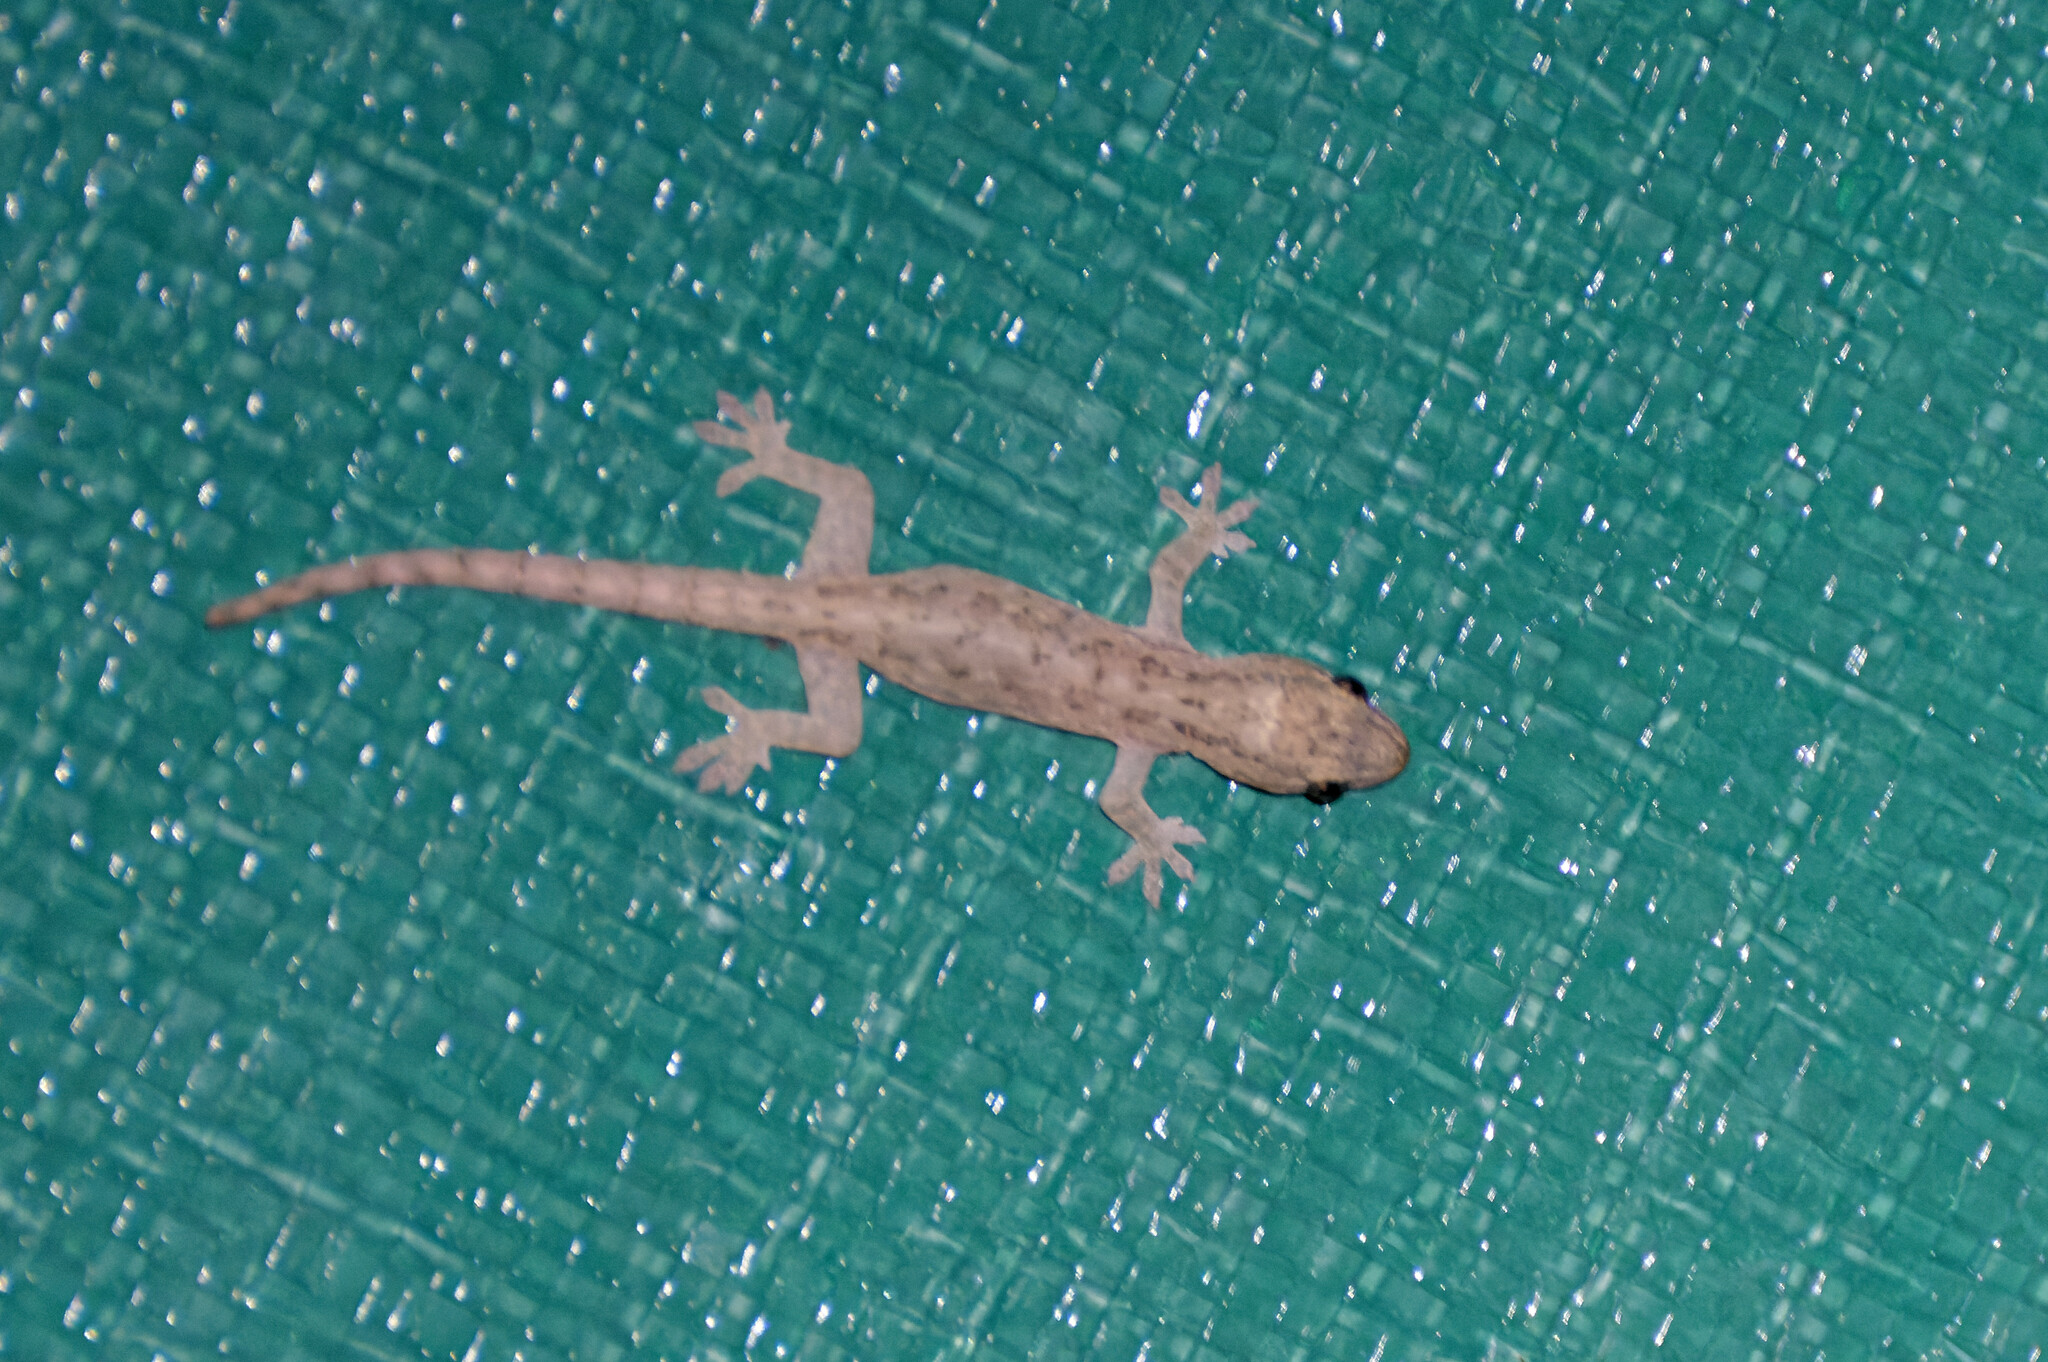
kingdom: Animalia
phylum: Chordata
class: Squamata
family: Gekkonidae
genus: Hemidactylus
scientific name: Hemidactylus frenatus
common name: Common house gecko
